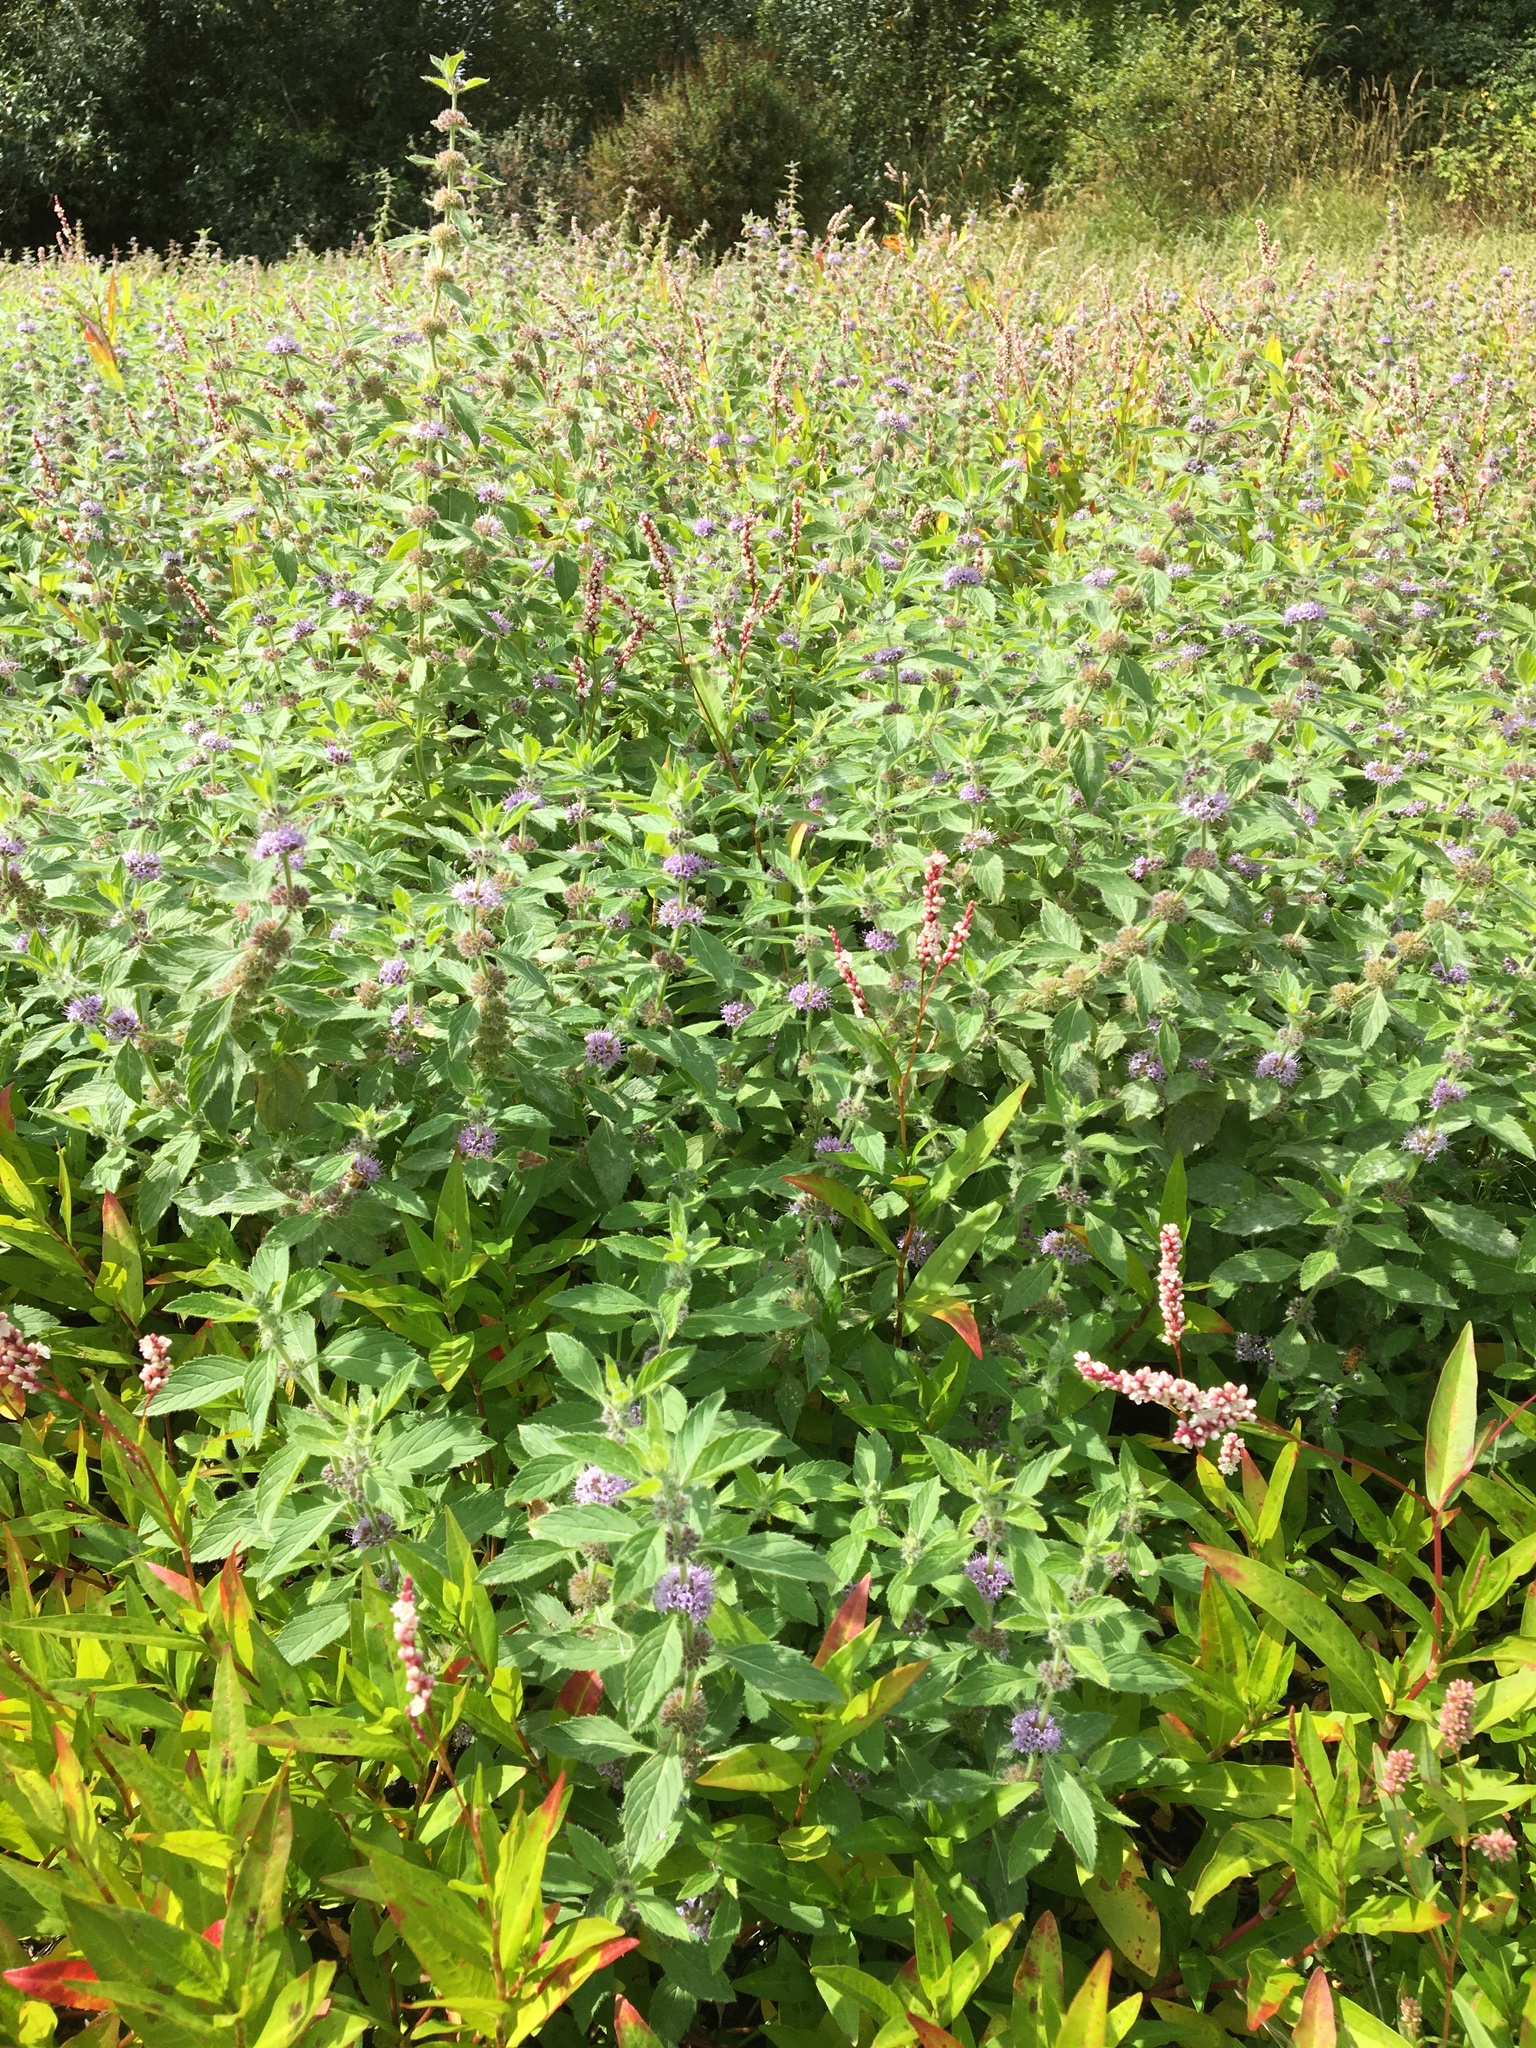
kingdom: Plantae
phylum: Tracheophyta
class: Magnoliopsida
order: Lamiales
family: Lamiaceae
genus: Mentha
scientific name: Mentha canadensis
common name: American corn mint
